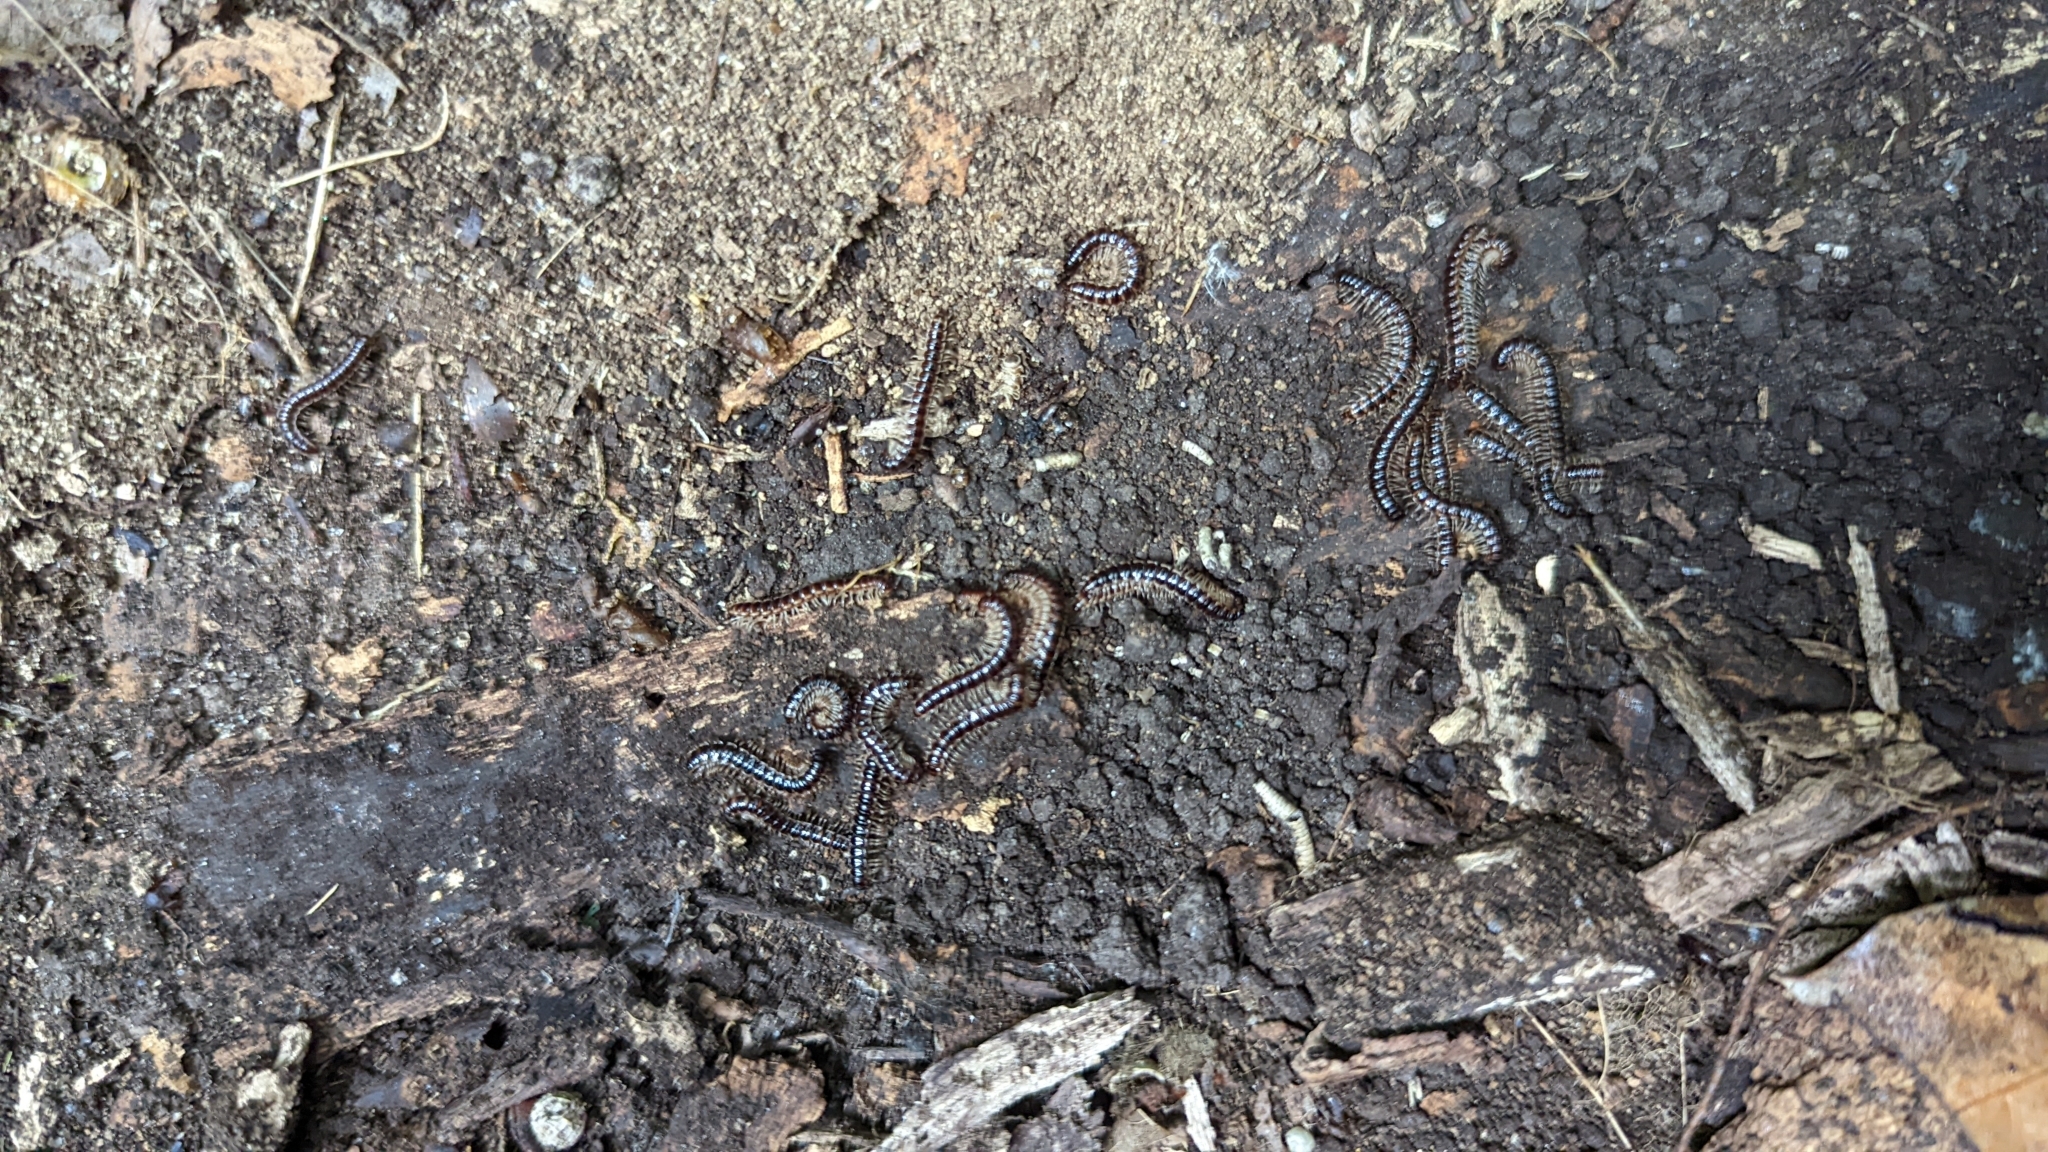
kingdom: Animalia
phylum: Arthropoda
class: Diplopoda
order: Polydesmida
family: Paradoxosomatidae
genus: Oxidus
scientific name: Oxidus gracilis
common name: Greenhouse millipede
